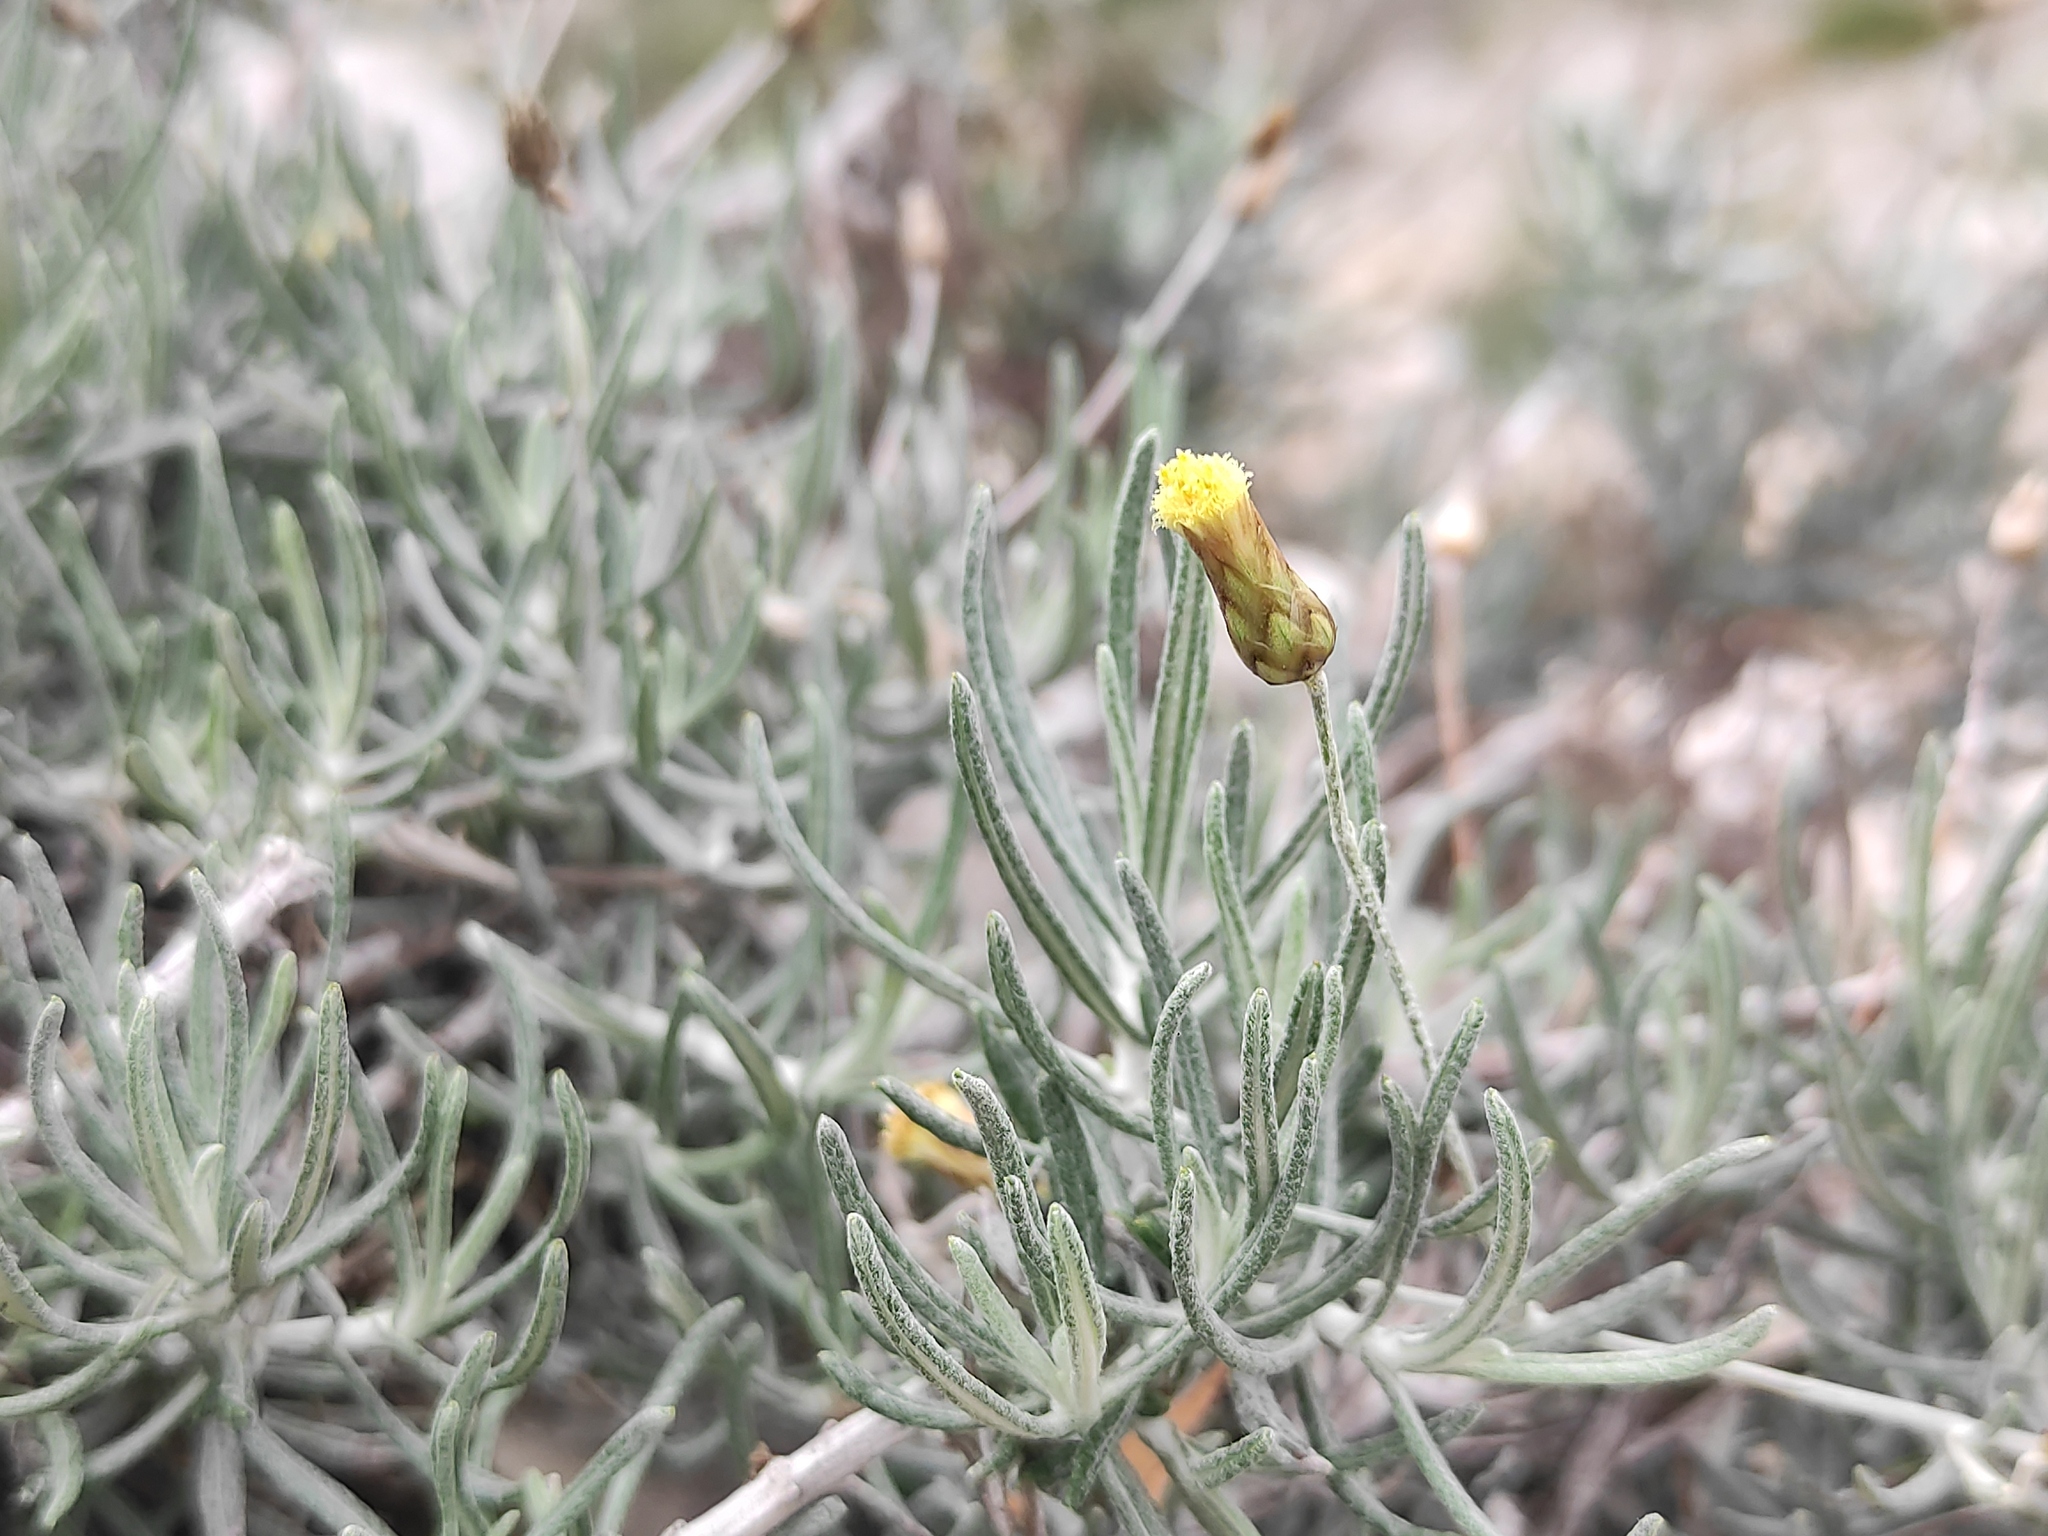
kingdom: Plantae
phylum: Tracheophyta
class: Magnoliopsida
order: Asterales
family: Asteraceae
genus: Phagnalon
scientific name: Phagnalon sordidum
